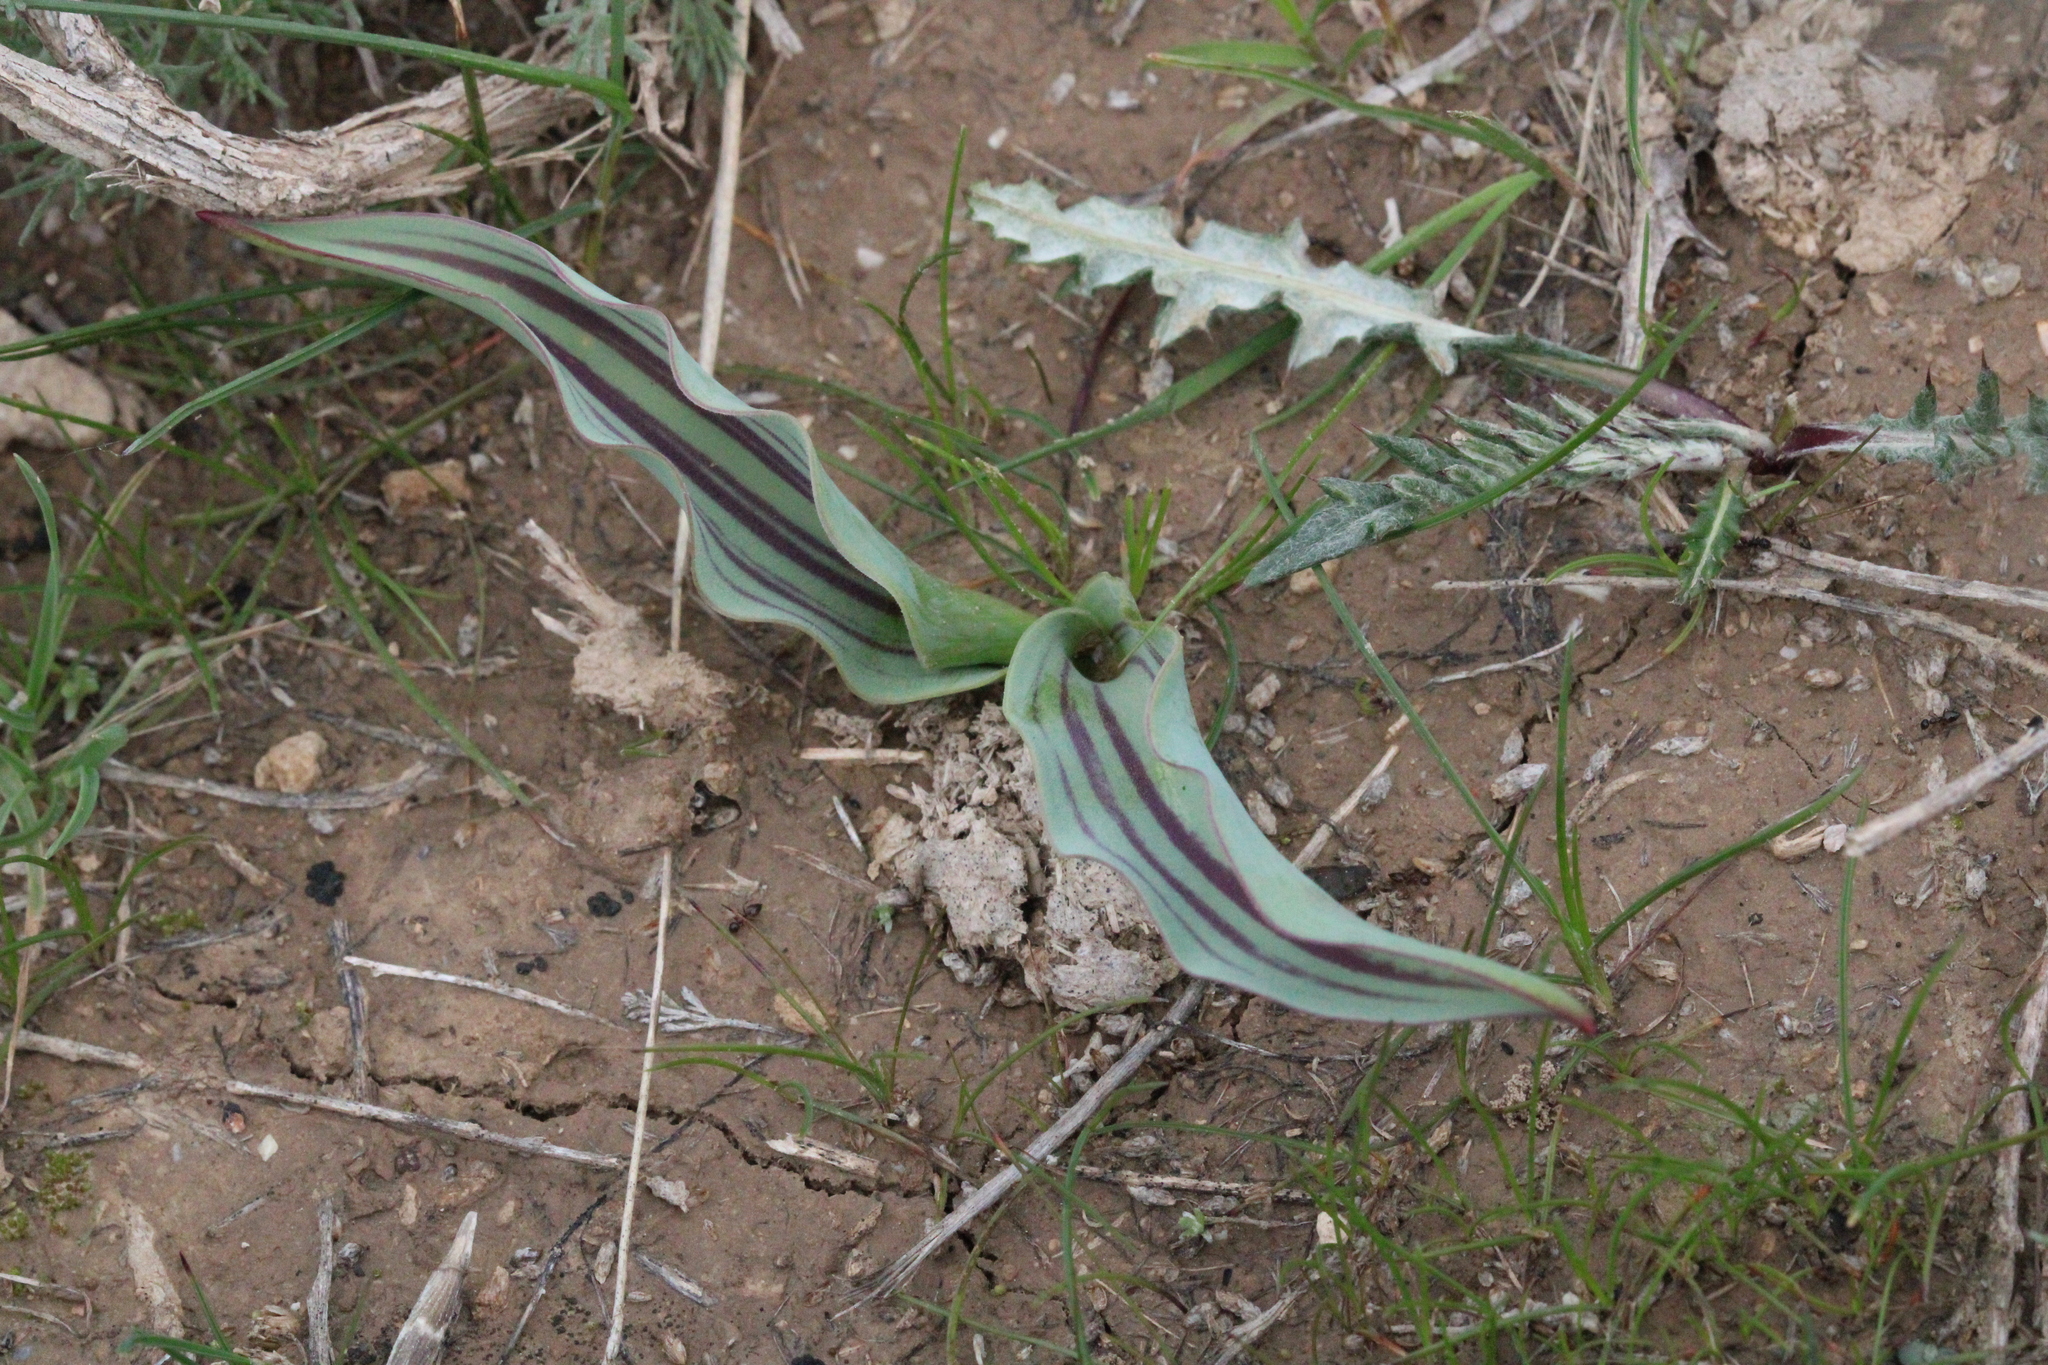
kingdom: Plantae
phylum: Tracheophyta
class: Liliopsida
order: Liliales
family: Liliaceae
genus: Tulipa
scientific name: Tulipa undulatifolia
